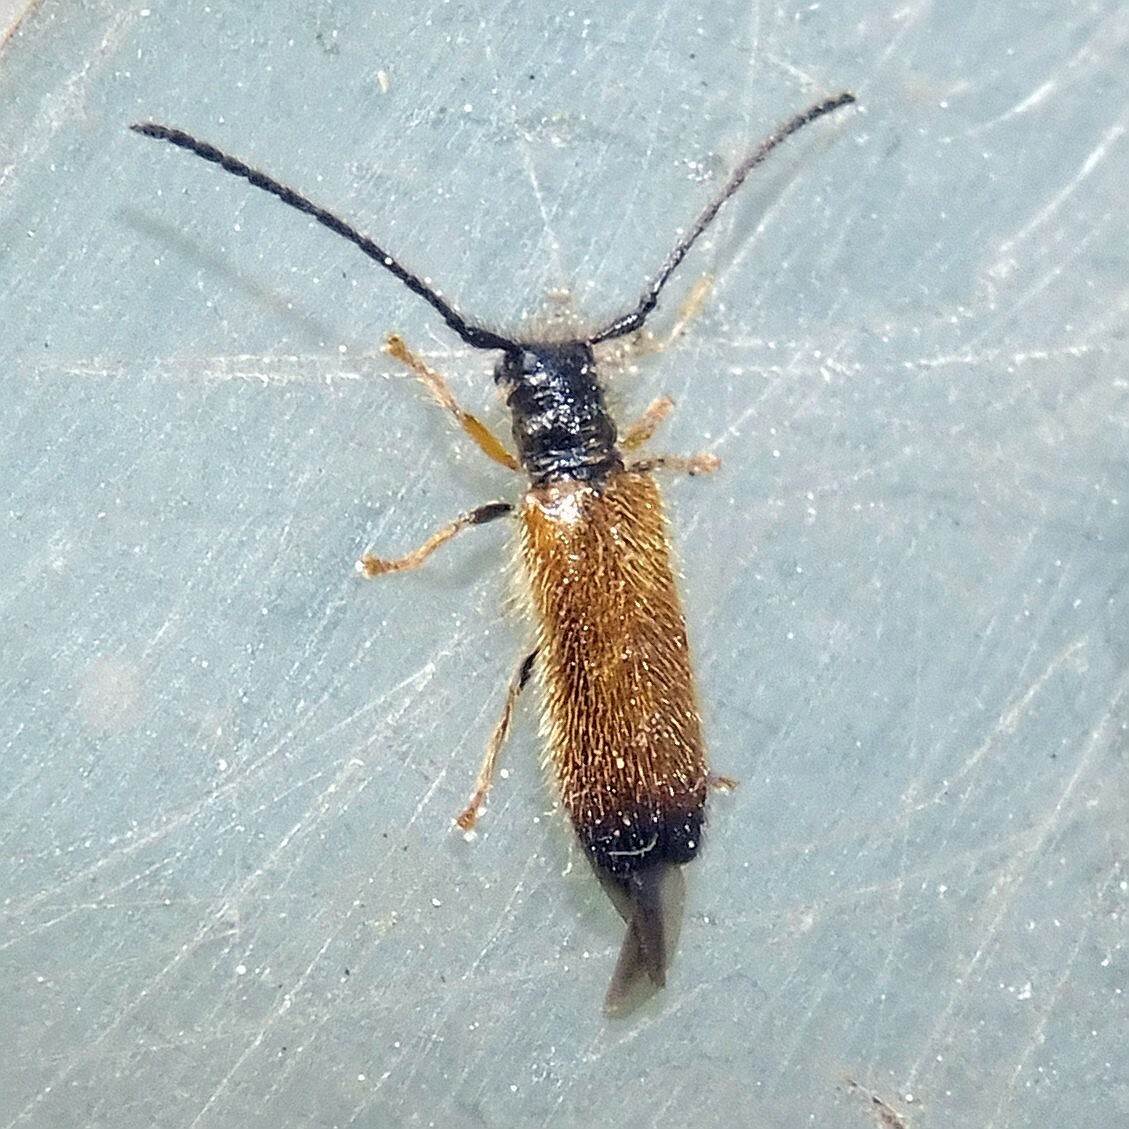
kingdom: Animalia
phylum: Arthropoda
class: Insecta
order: Coleoptera
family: Cerambycidae
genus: Tetrops
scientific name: Tetrops praeustus
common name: Plum beetle
